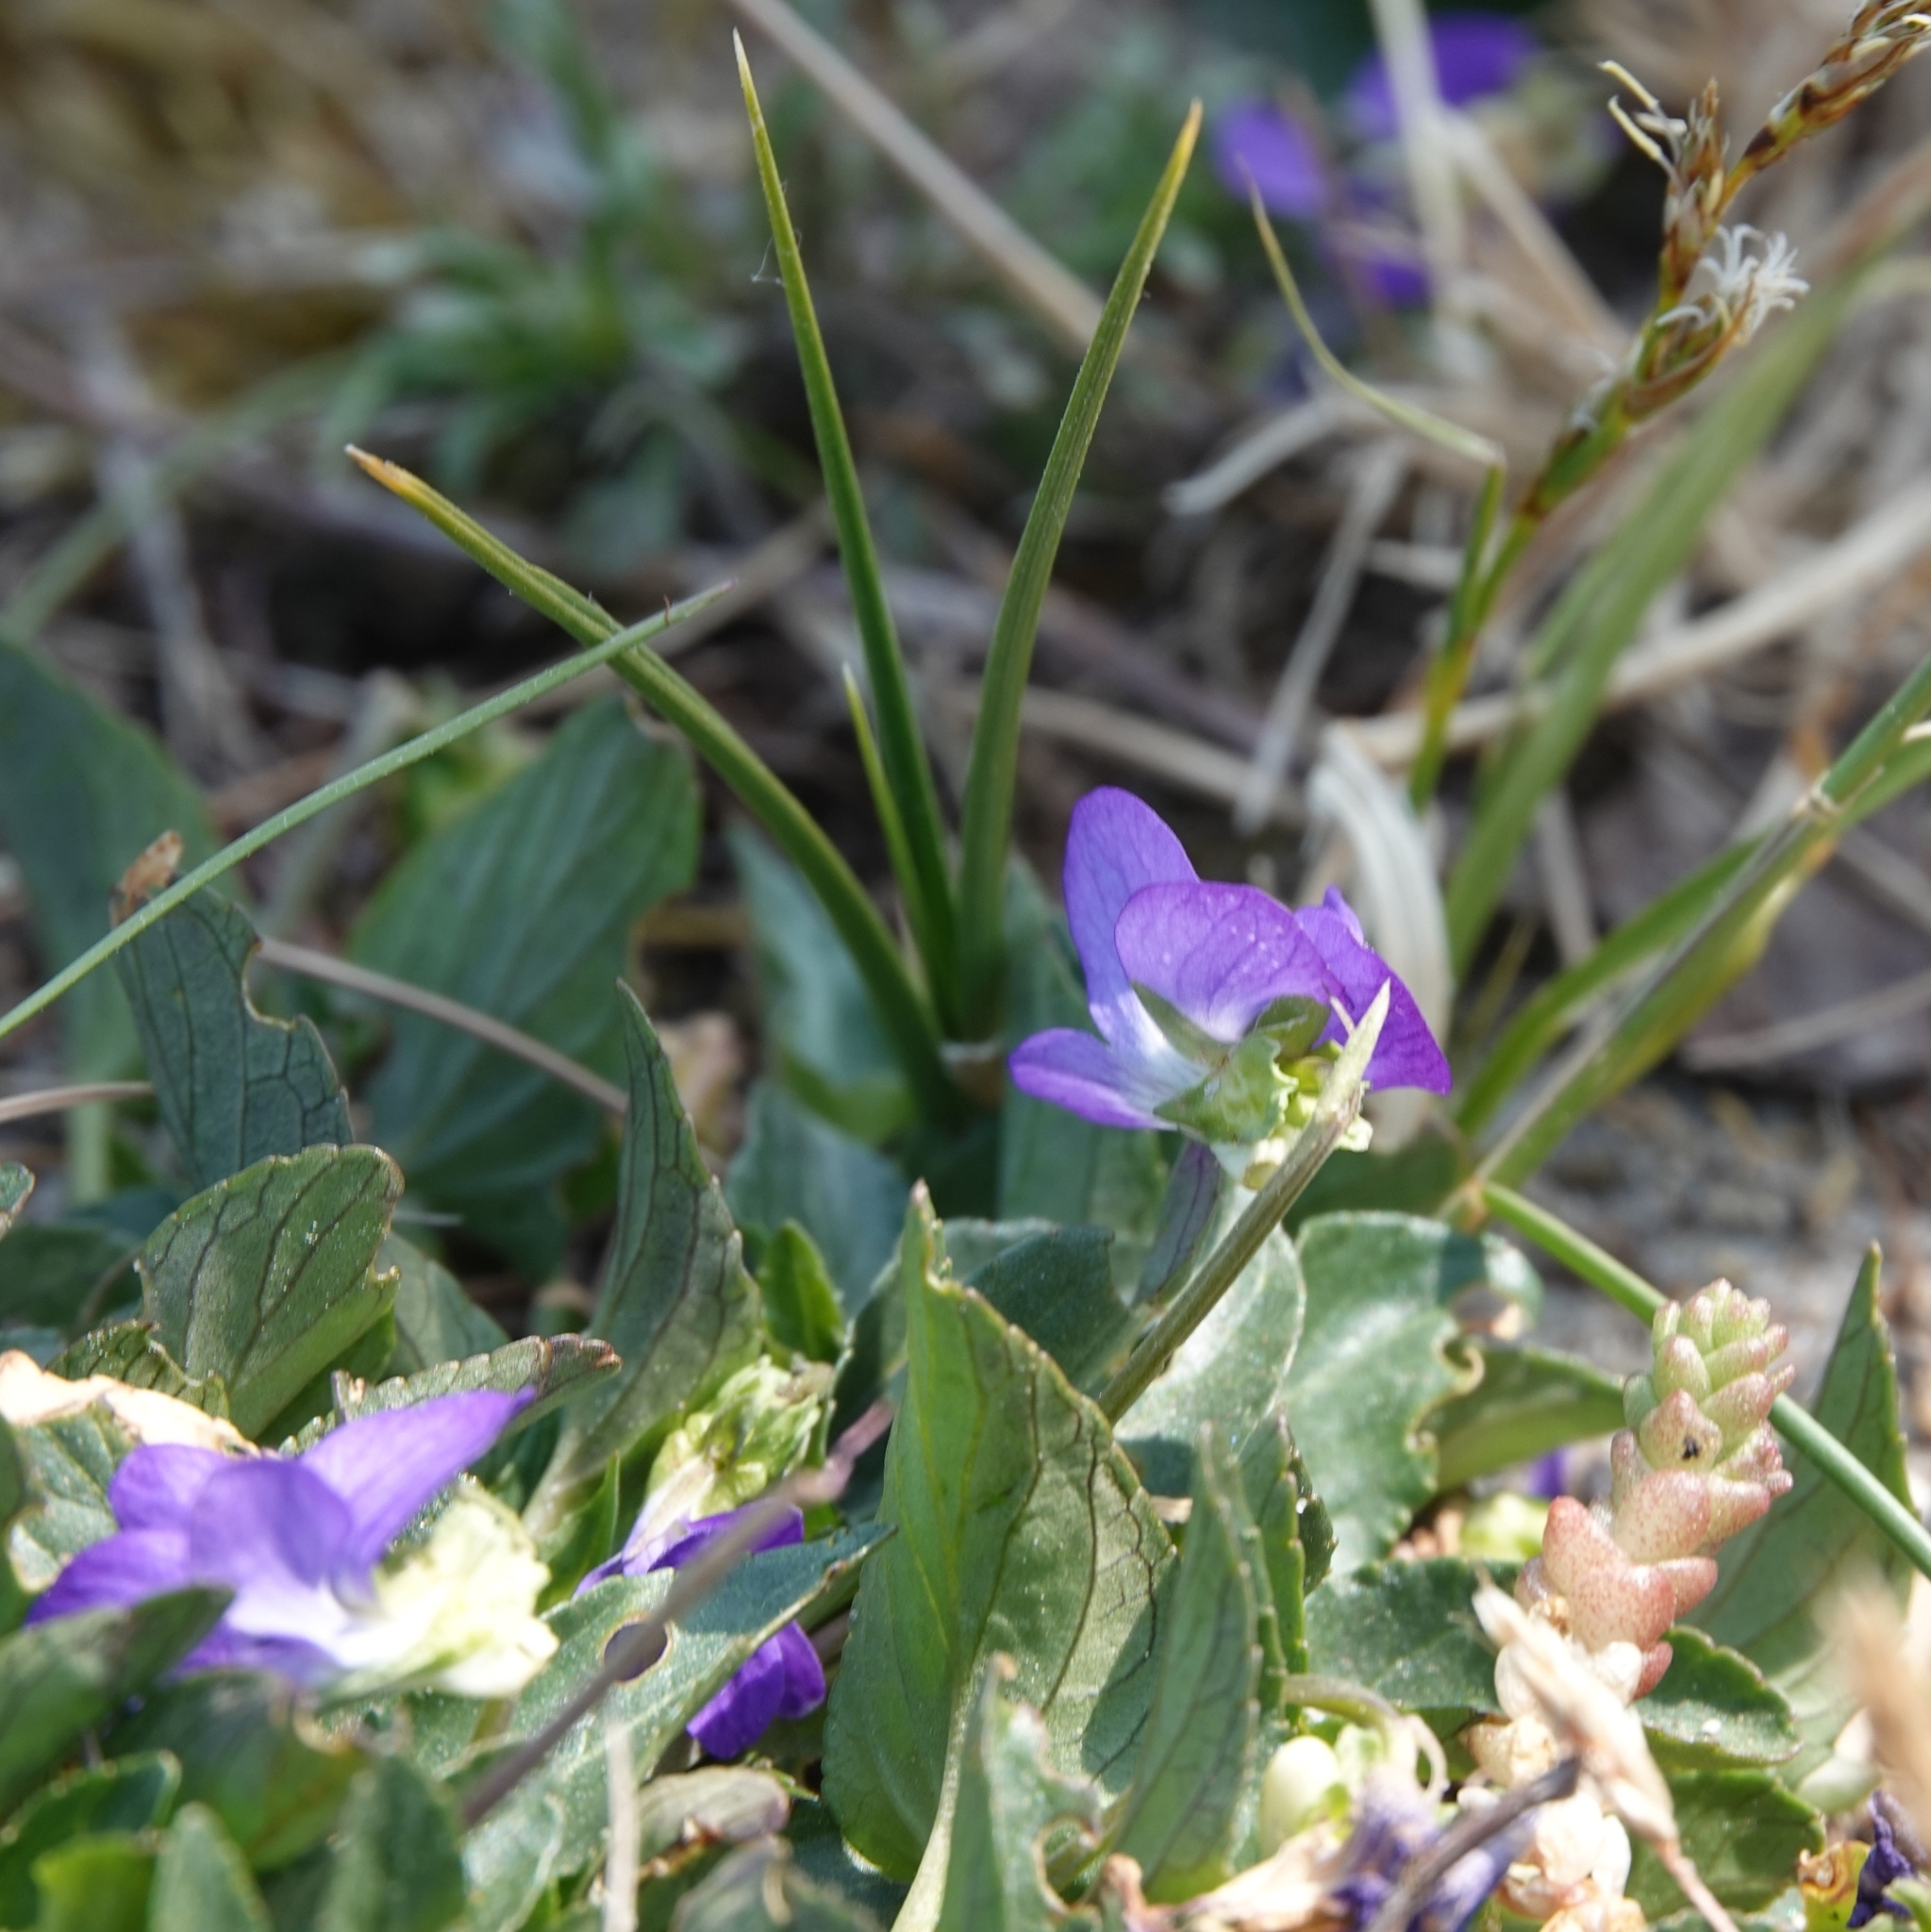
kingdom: Plantae
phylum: Tracheophyta
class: Magnoliopsida
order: Malpighiales
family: Violaceae
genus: Viola
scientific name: Viola canina
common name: Heath dog-violet
